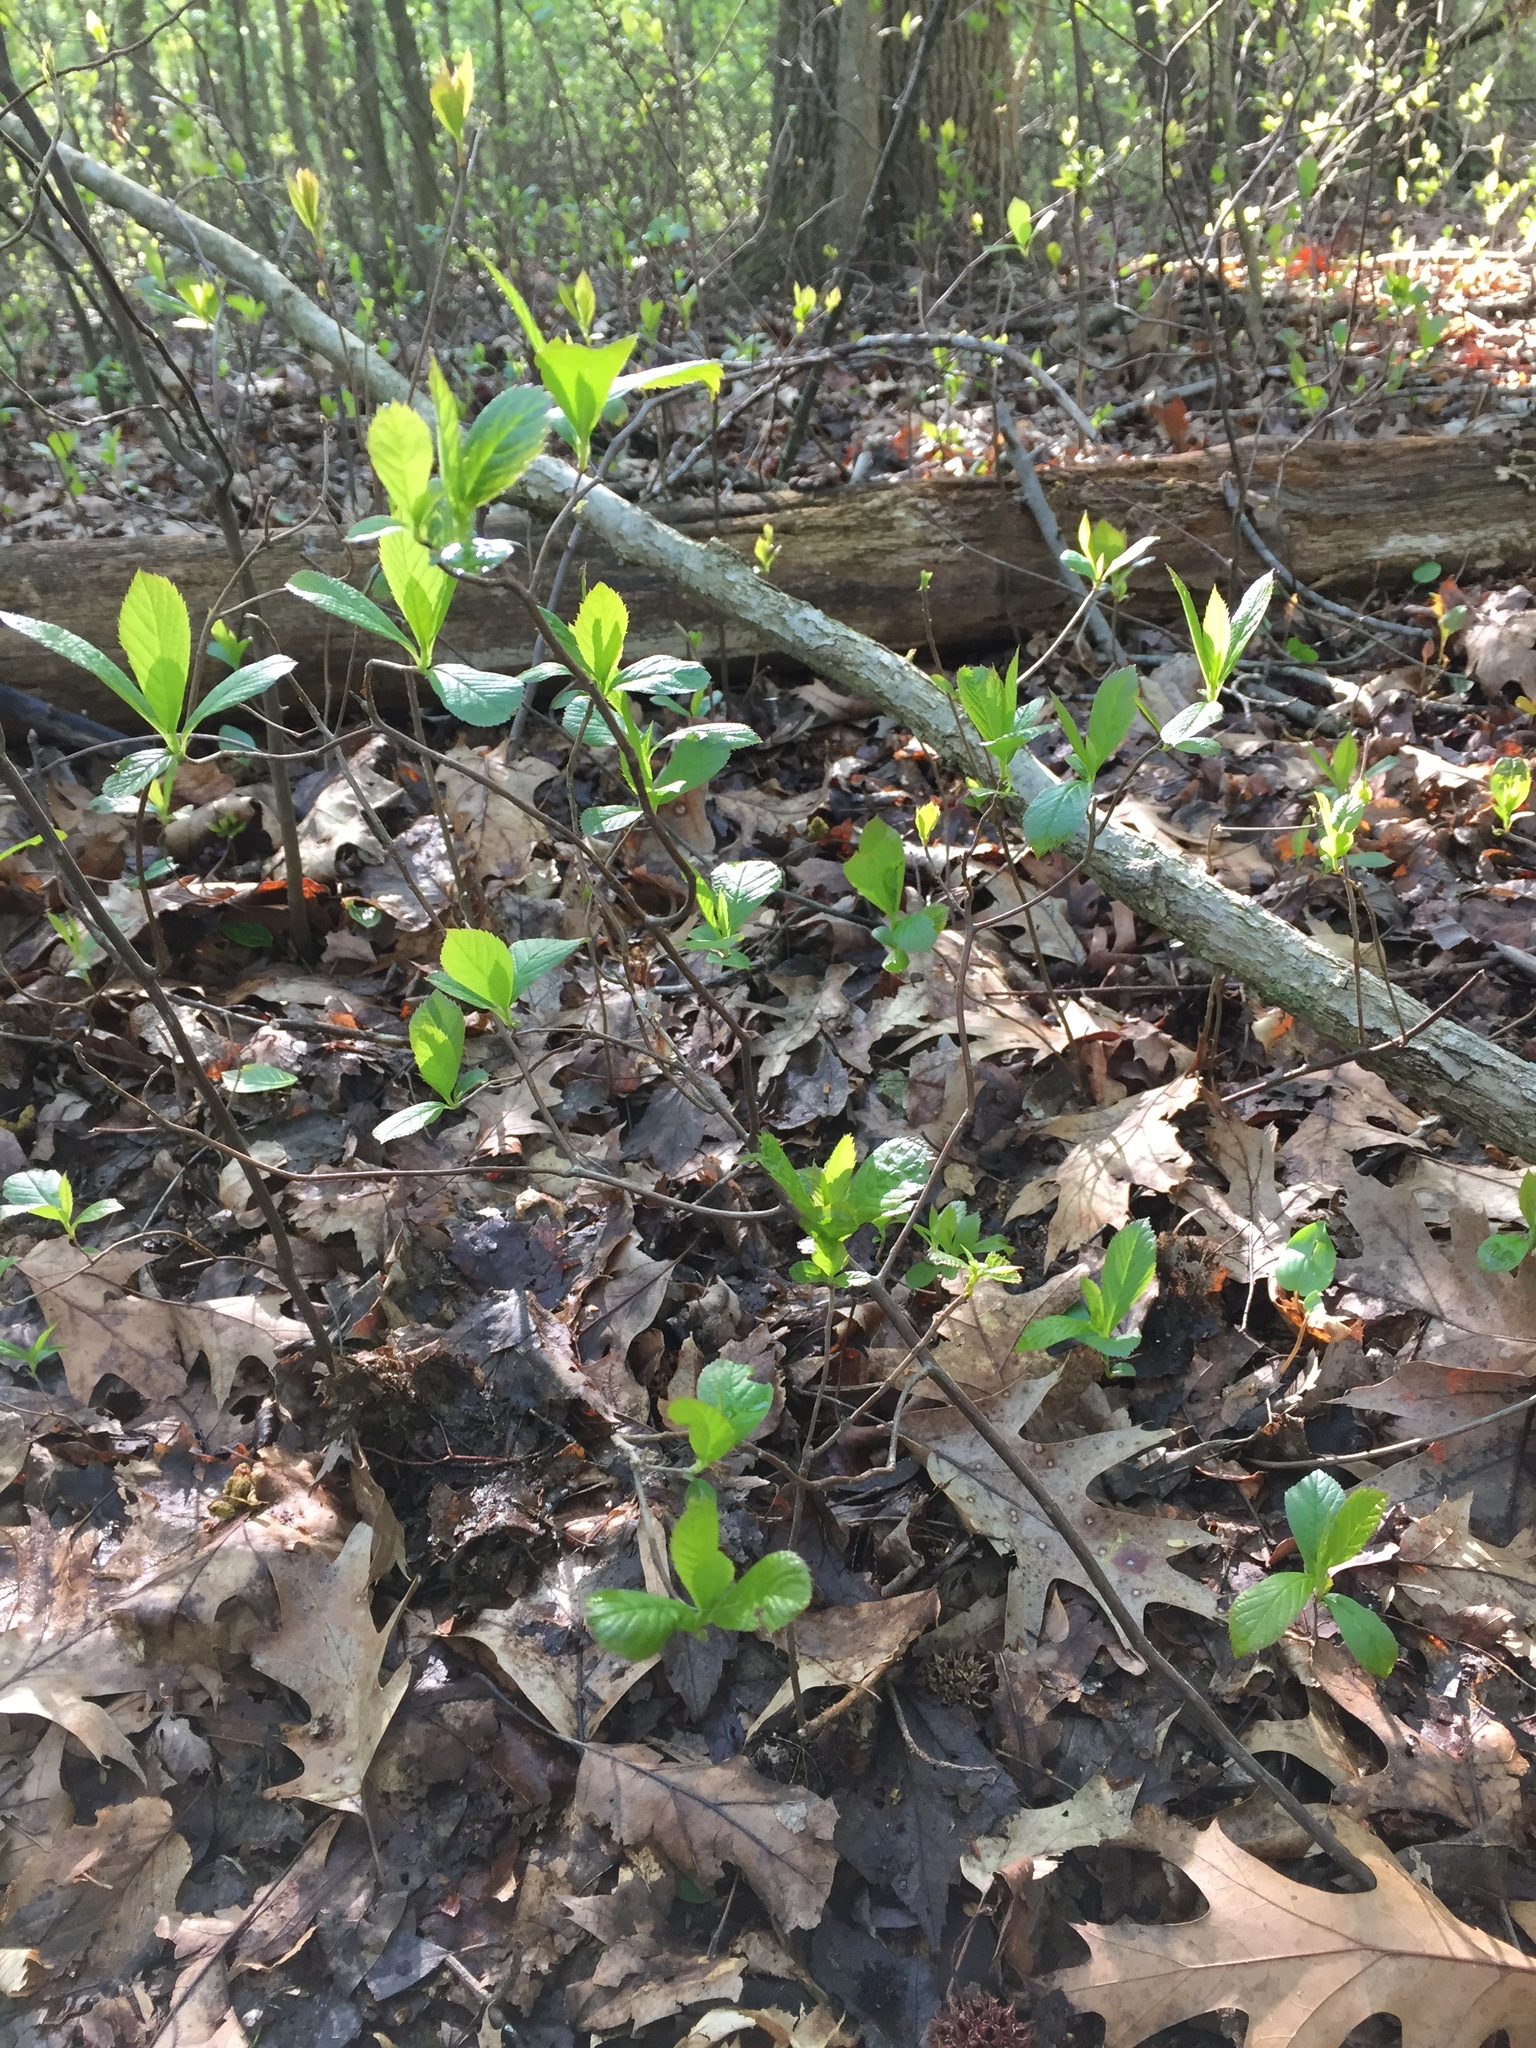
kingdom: Plantae
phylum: Tracheophyta
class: Magnoliopsida
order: Ericales
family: Clethraceae
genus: Clethra
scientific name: Clethra alnifolia
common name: Sweet pepperbush
